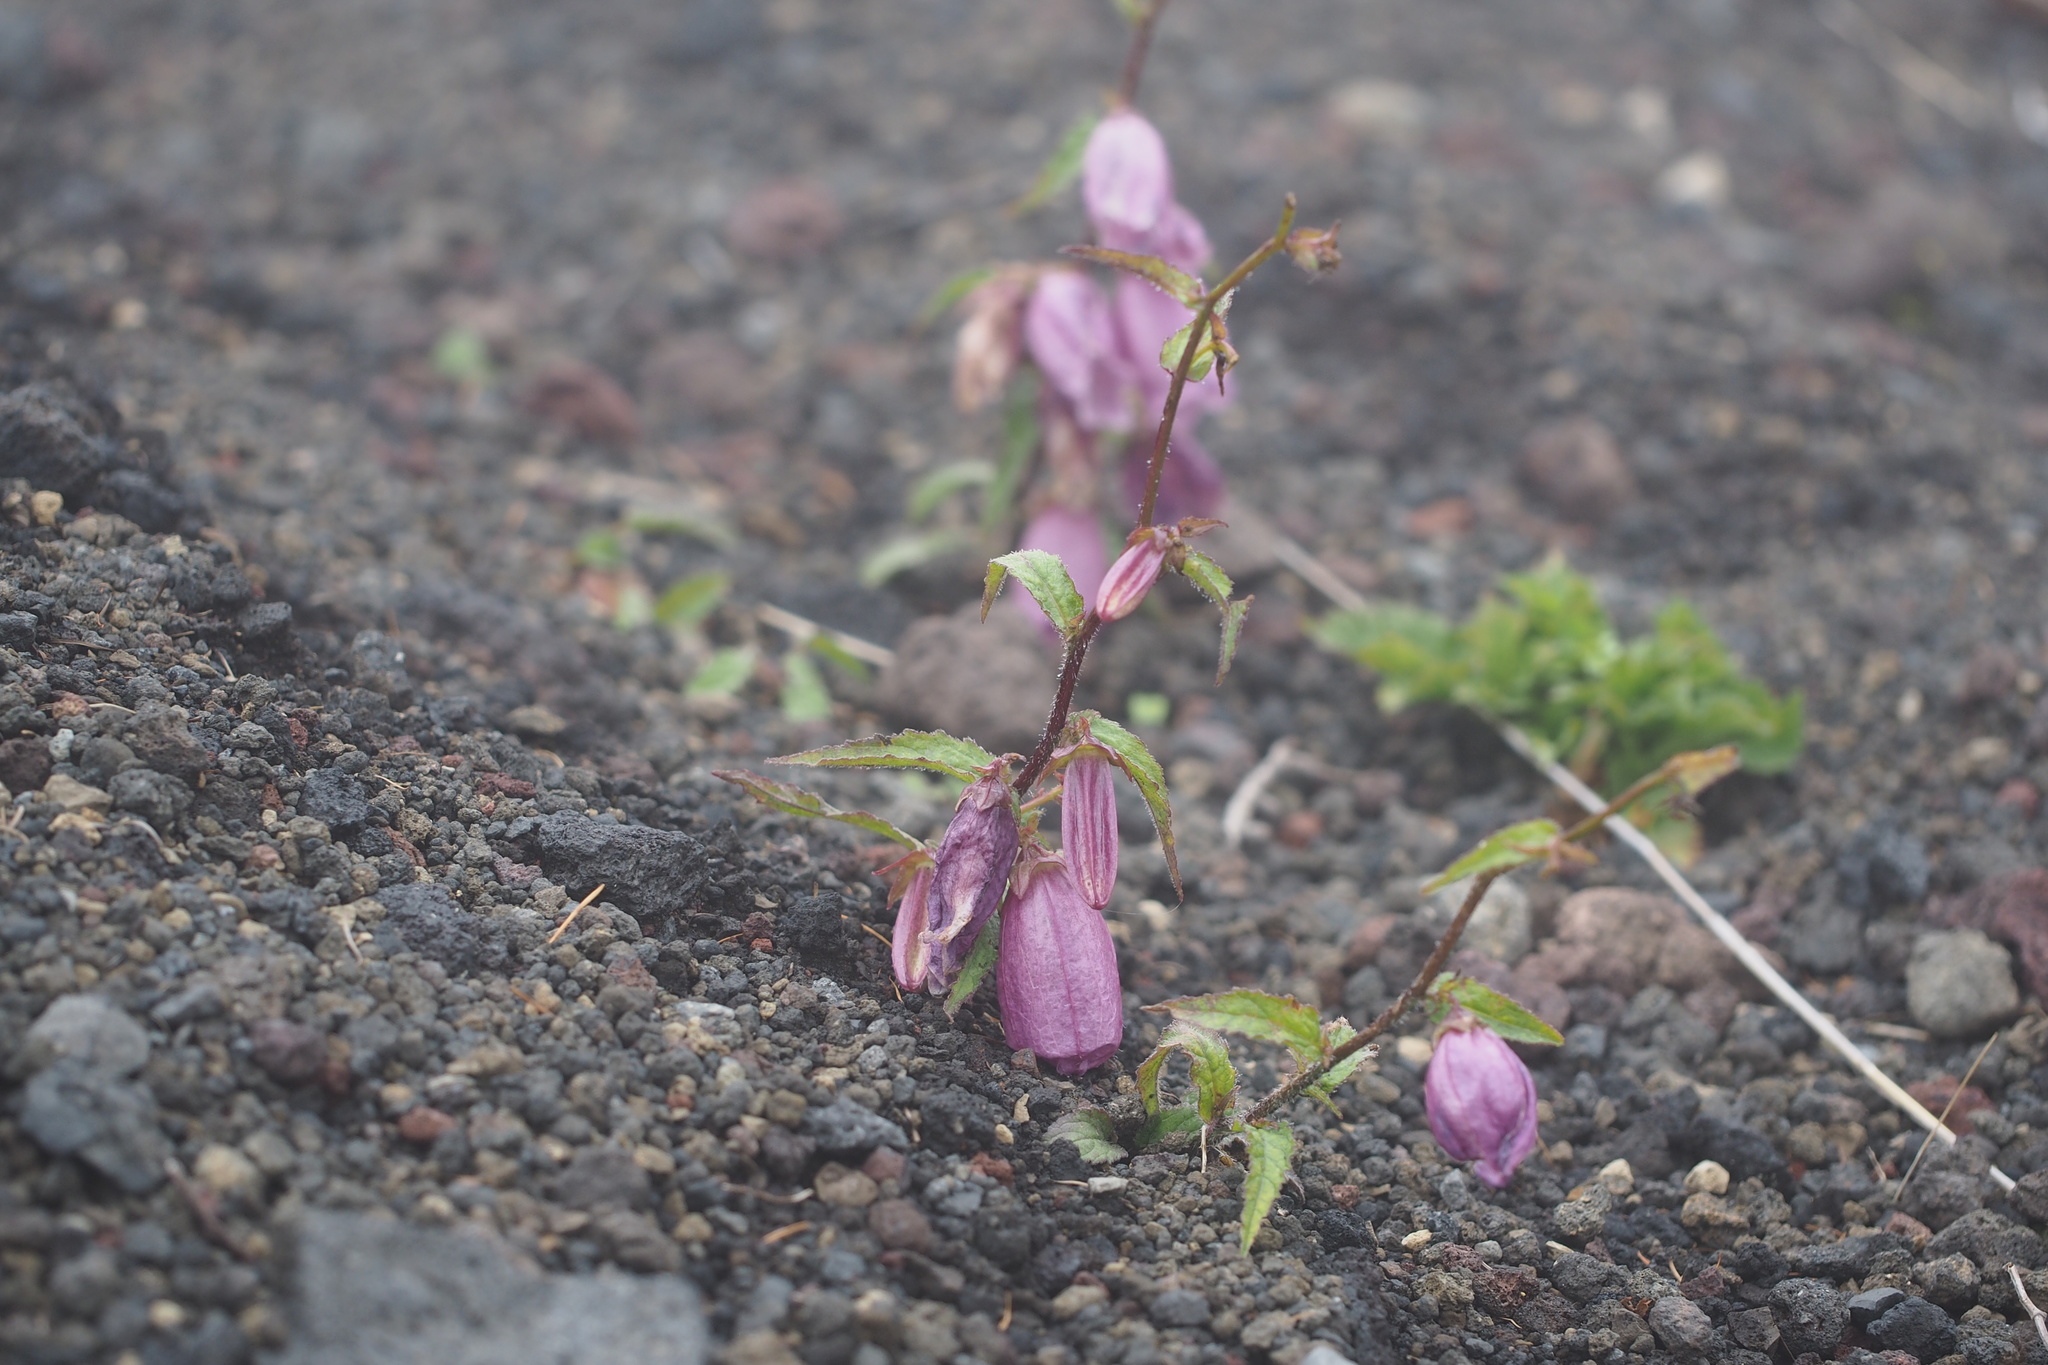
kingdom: Plantae
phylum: Tracheophyta
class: Magnoliopsida
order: Asterales
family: Campanulaceae
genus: Campanula
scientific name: Campanula punctata
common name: Spotted bellflower
